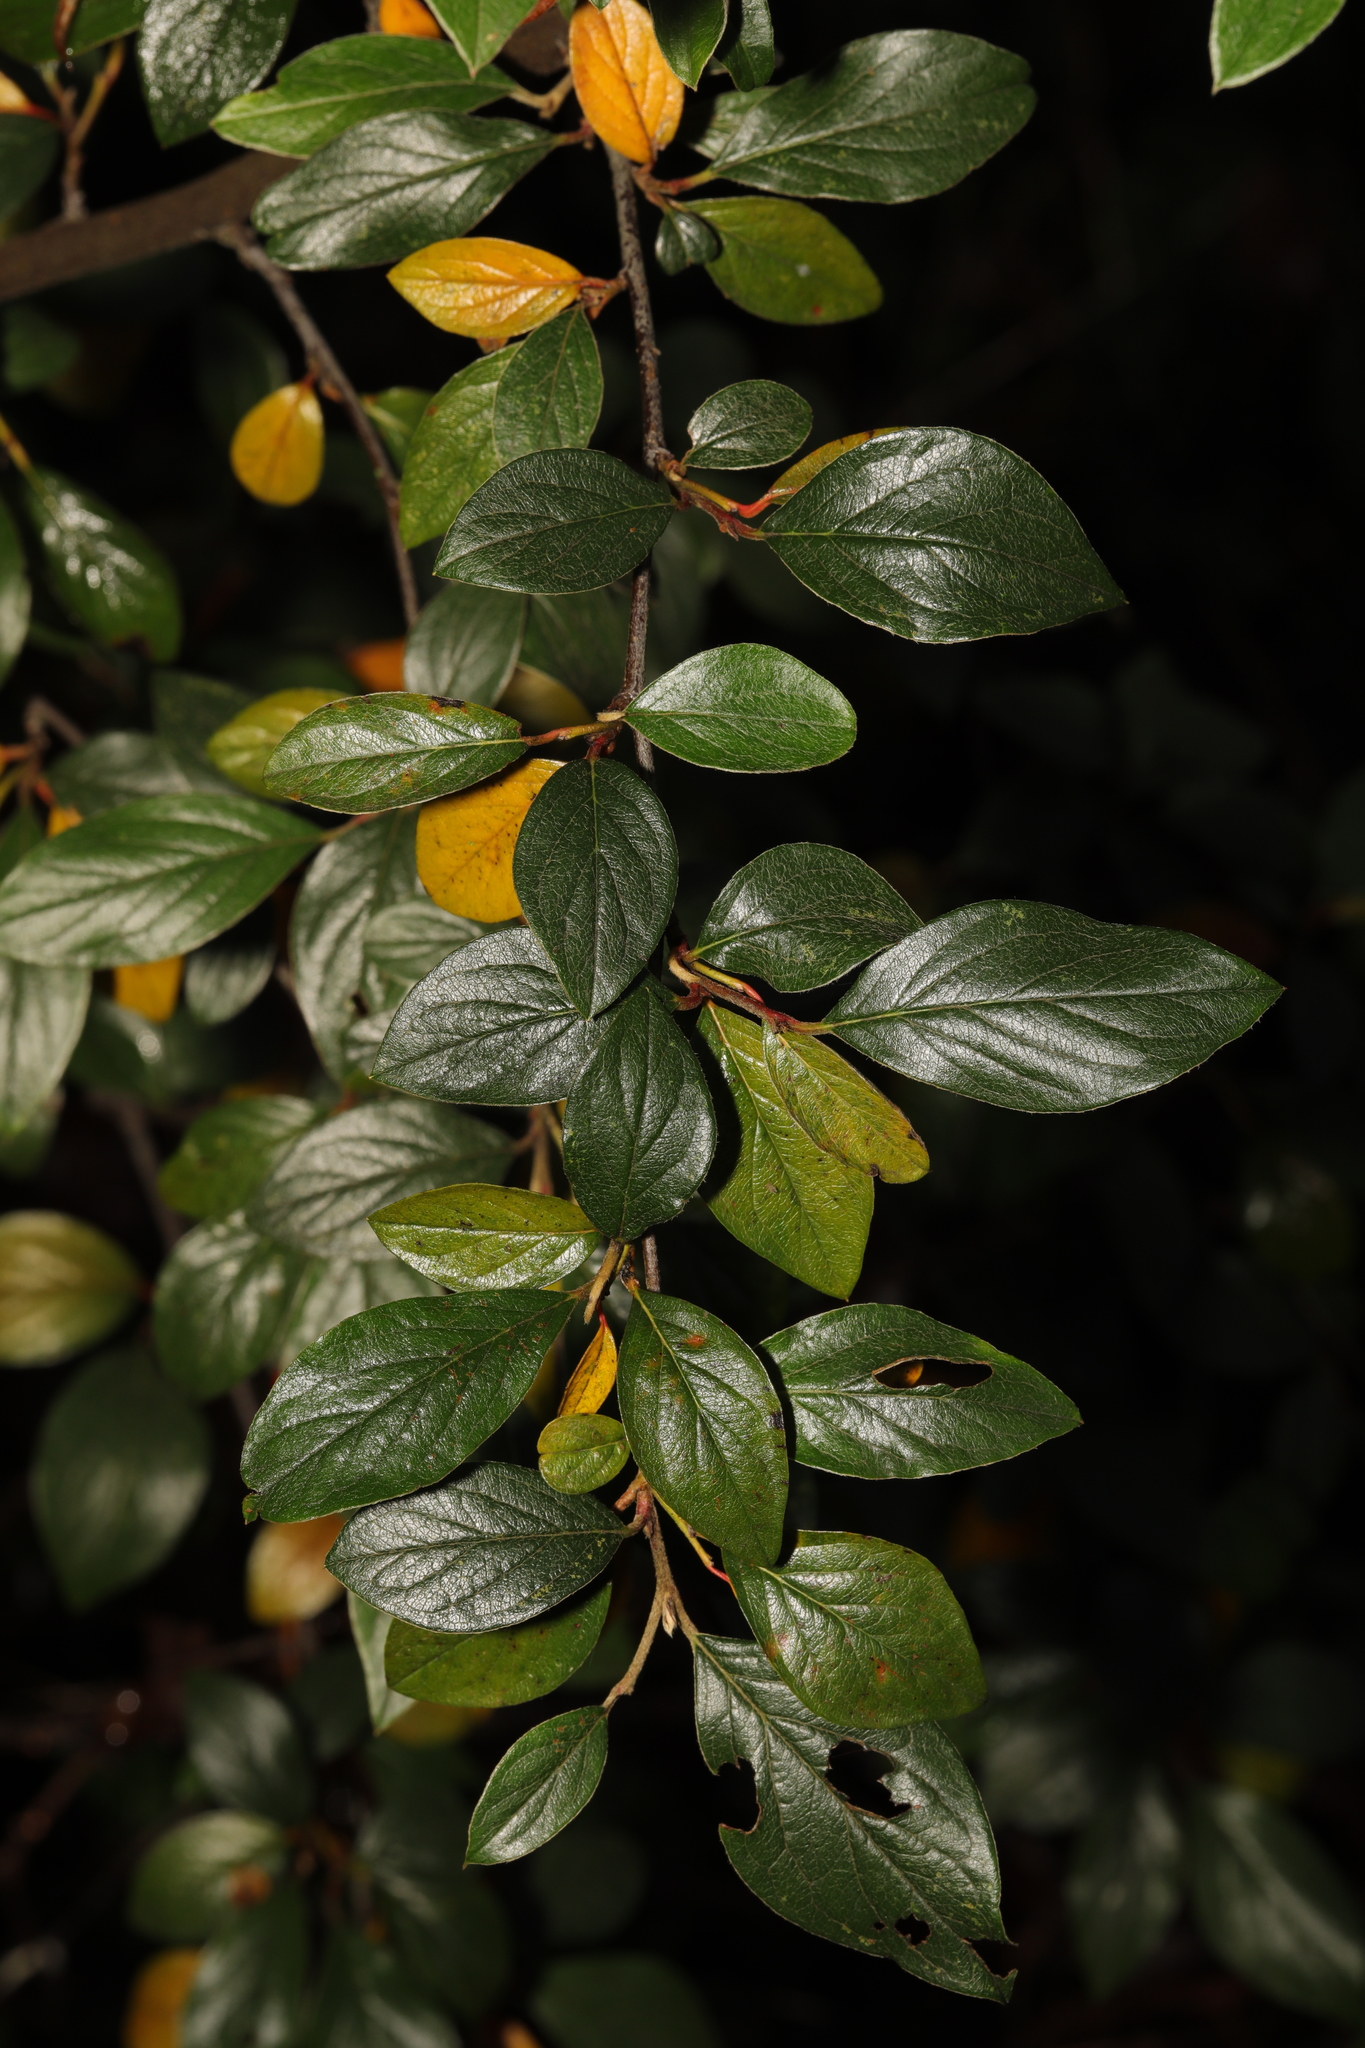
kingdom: Plantae
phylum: Tracheophyta
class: Magnoliopsida
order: Rosales
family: Rosaceae
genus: Cotoneaster
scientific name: Cotoneaster franchetii
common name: Franchet's cotoneaster
